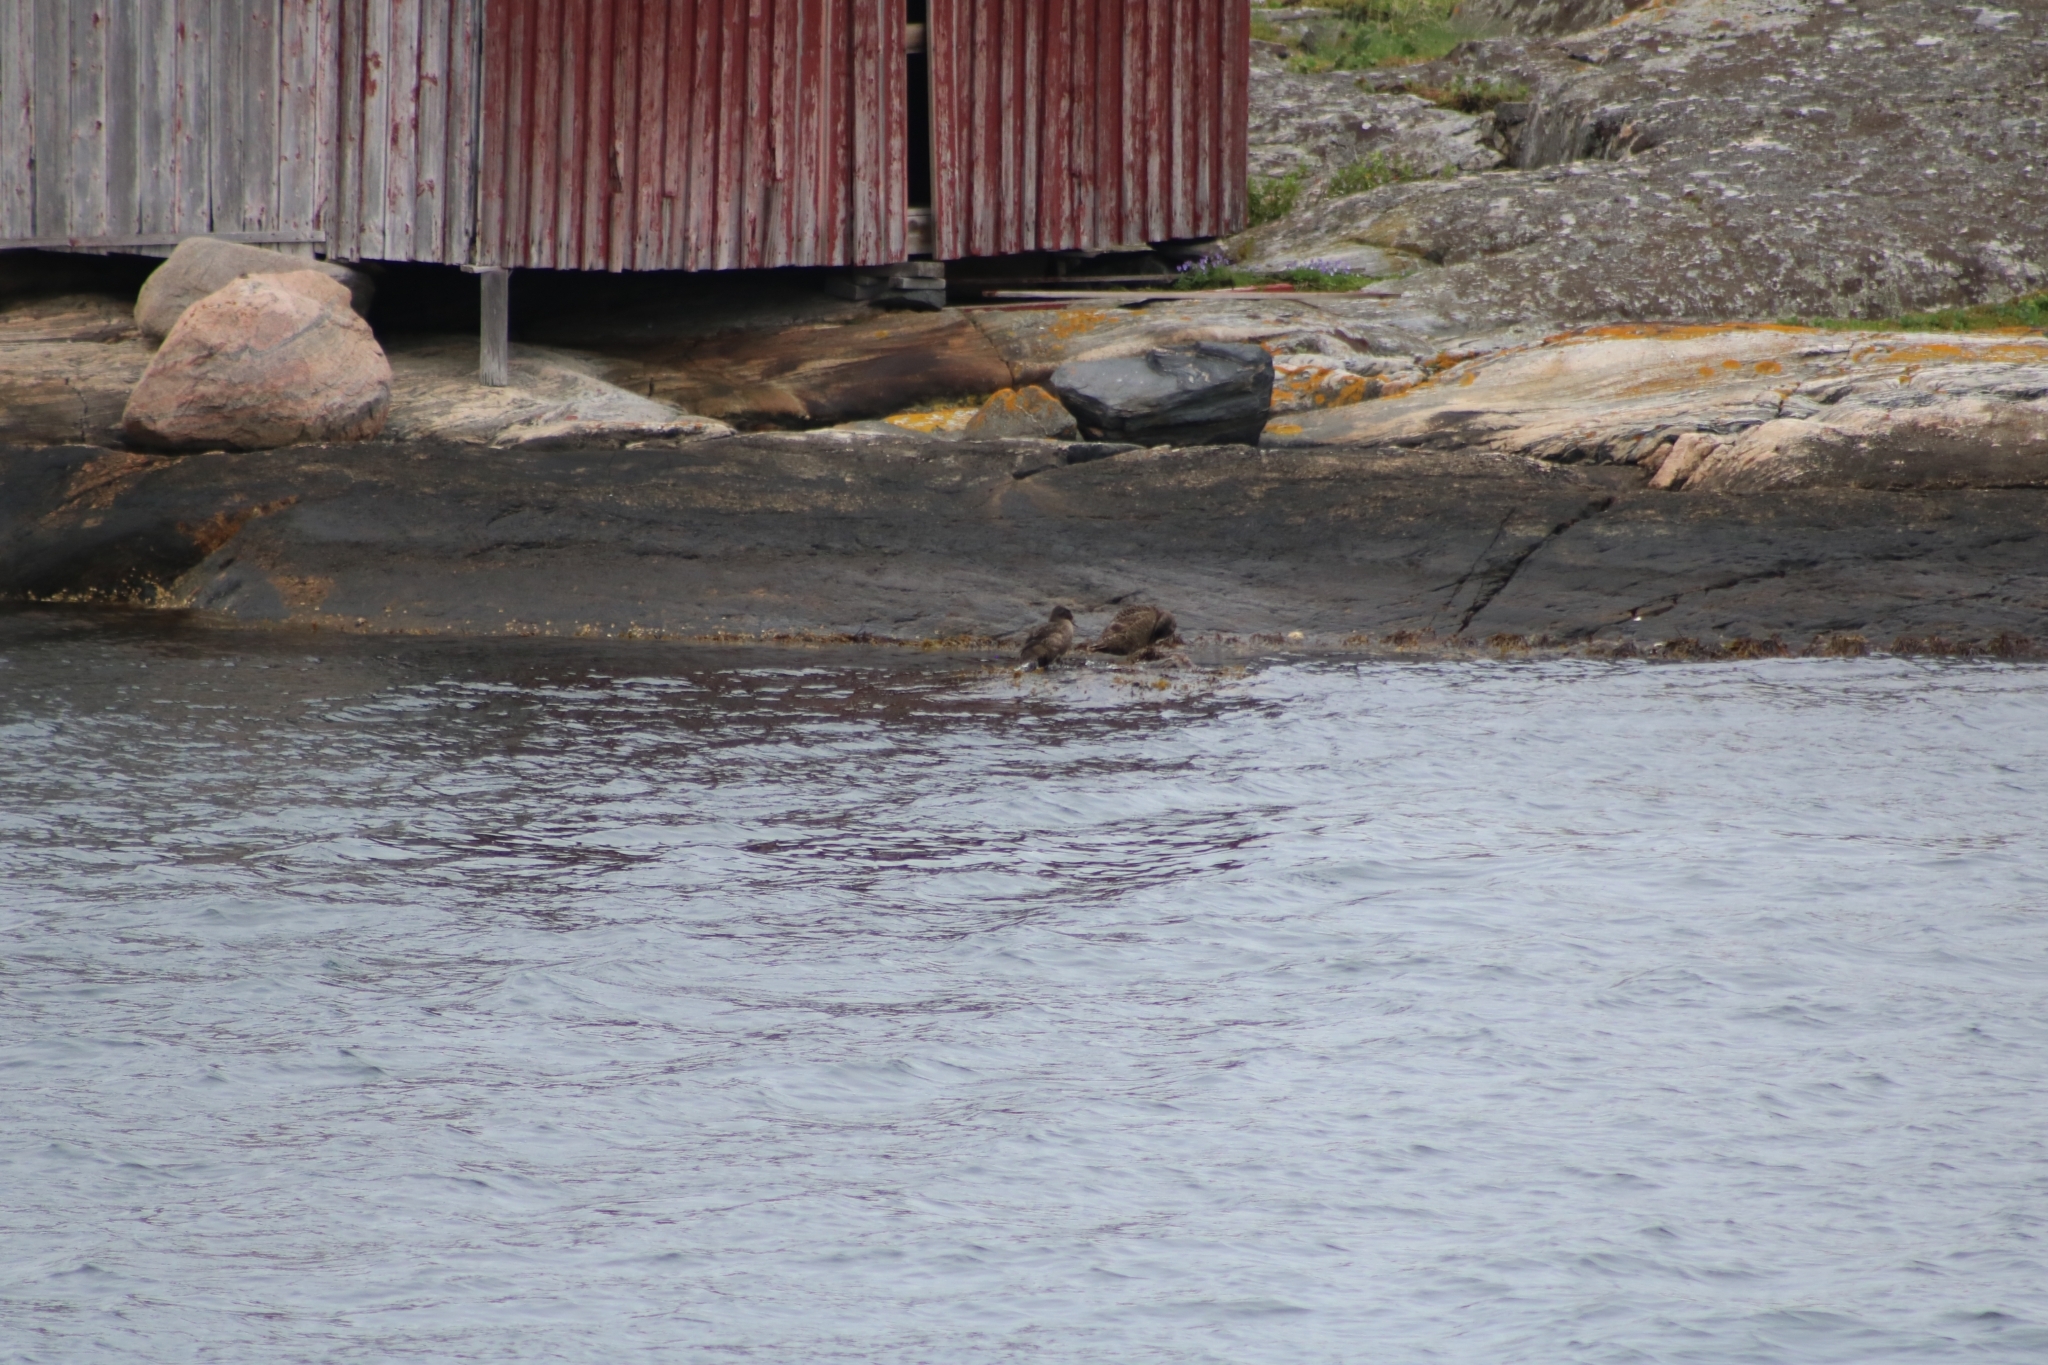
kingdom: Animalia
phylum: Chordata
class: Aves
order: Anseriformes
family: Anatidae
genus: Somateria
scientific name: Somateria mollissima
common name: Common eider
